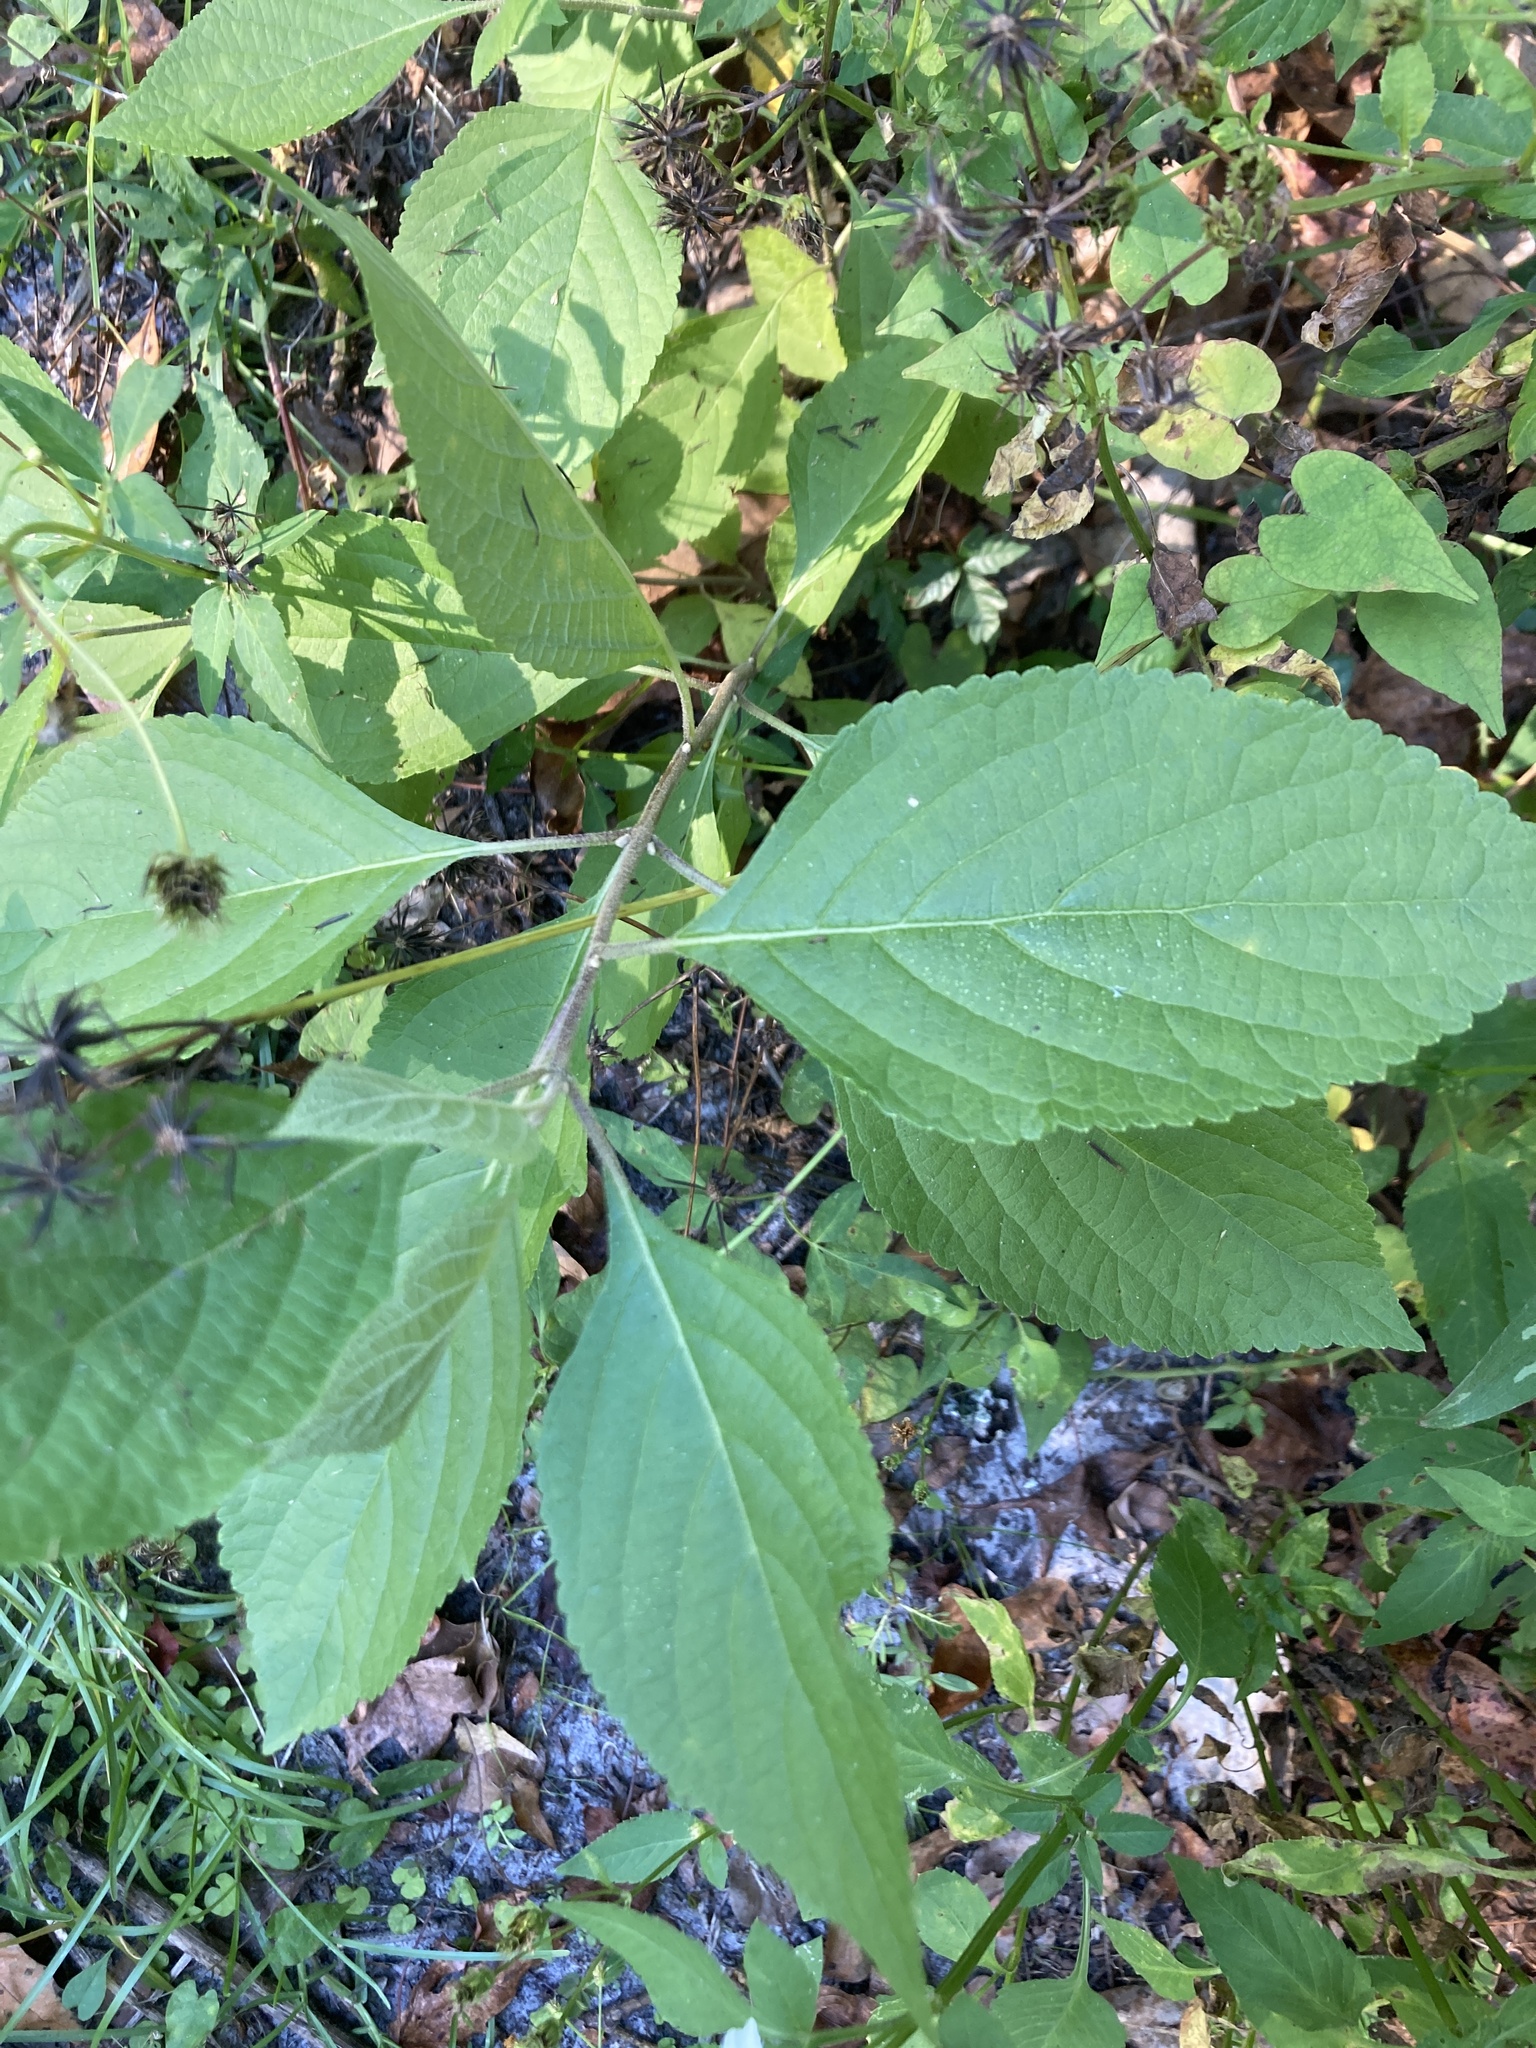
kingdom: Plantae
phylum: Tracheophyta
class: Magnoliopsida
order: Lamiales
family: Lamiaceae
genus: Callicarpa
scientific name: Callicarpa americana
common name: American beautyberry
